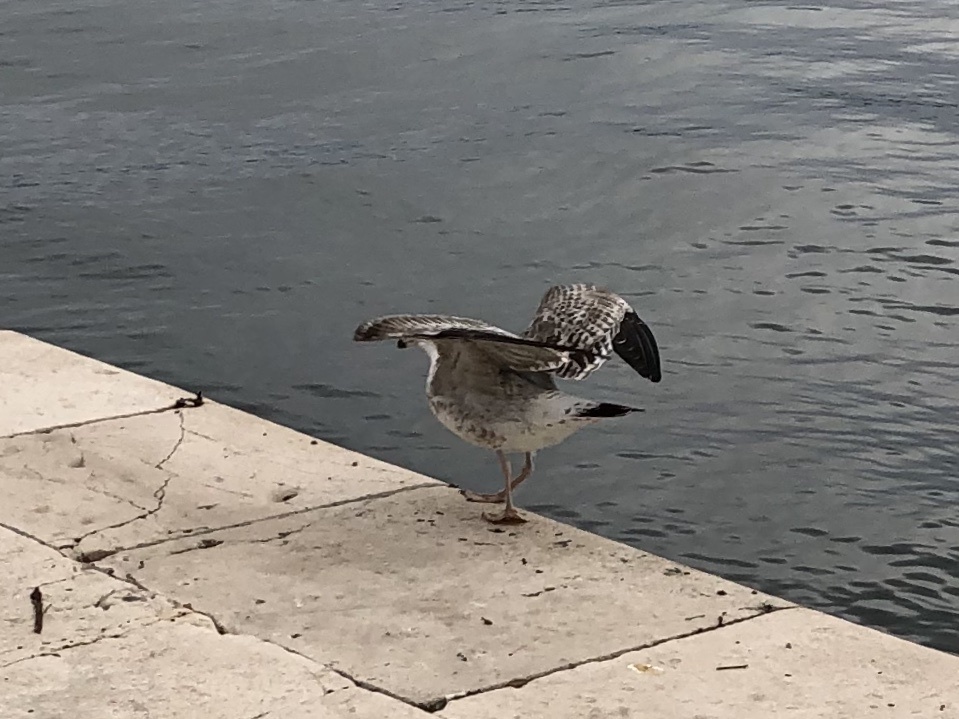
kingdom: Animalia
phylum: Chordata
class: Aves
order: Charadriiformes
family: Laridae
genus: Larus
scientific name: Larus michahellis
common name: Yellow-legged gull
